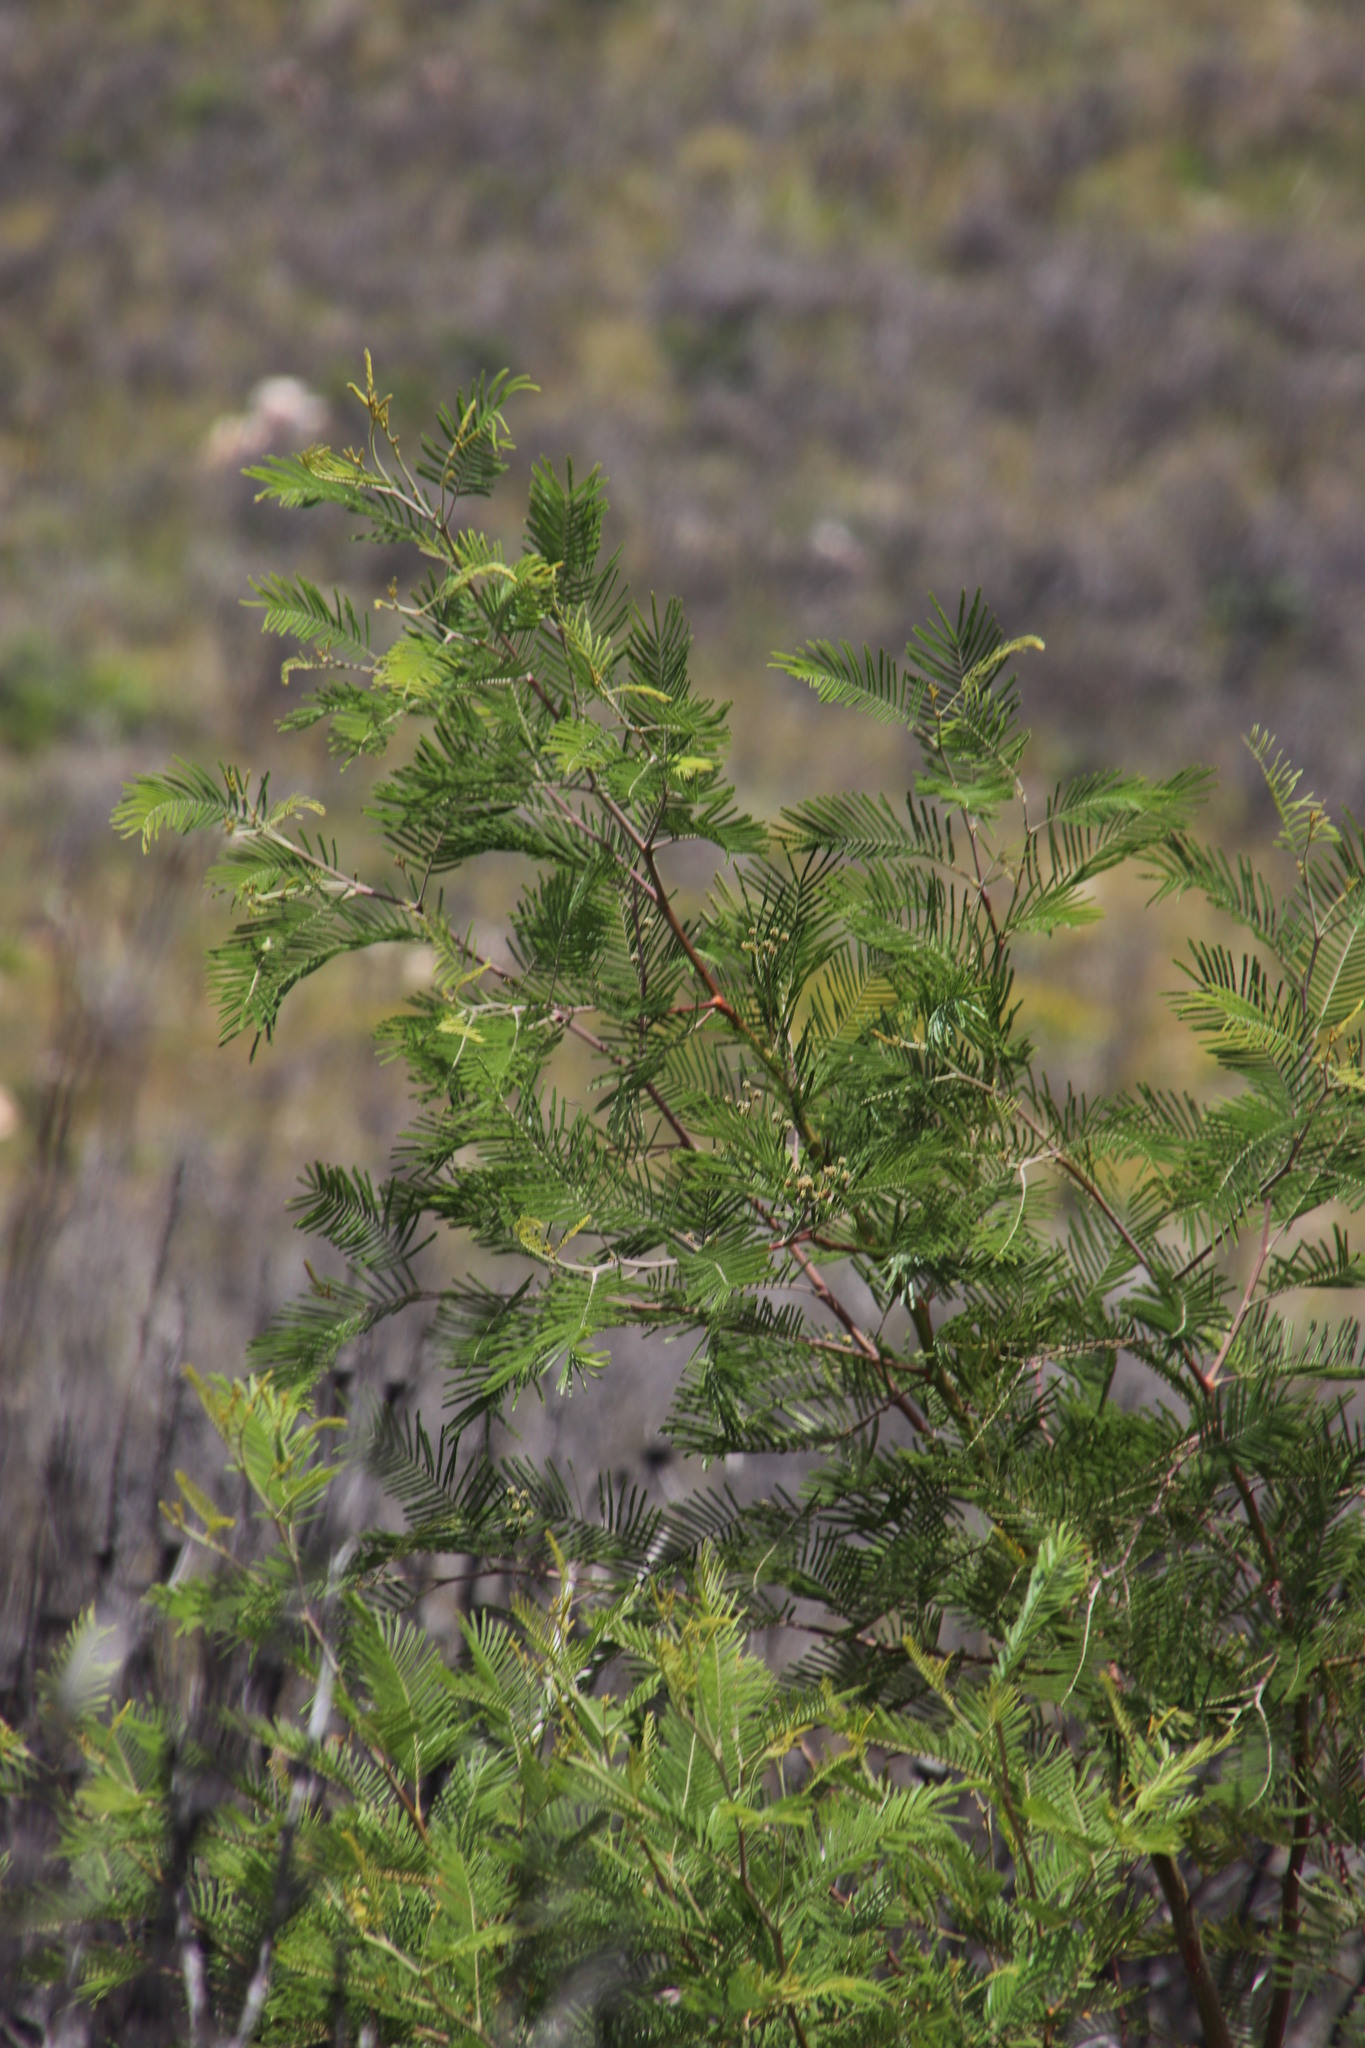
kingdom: Plantae
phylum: Tracheophyta
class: Magnoliopsida
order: Fabales
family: Fabaceae
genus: Acacia
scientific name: Acacia mearnsii
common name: Black wattle
